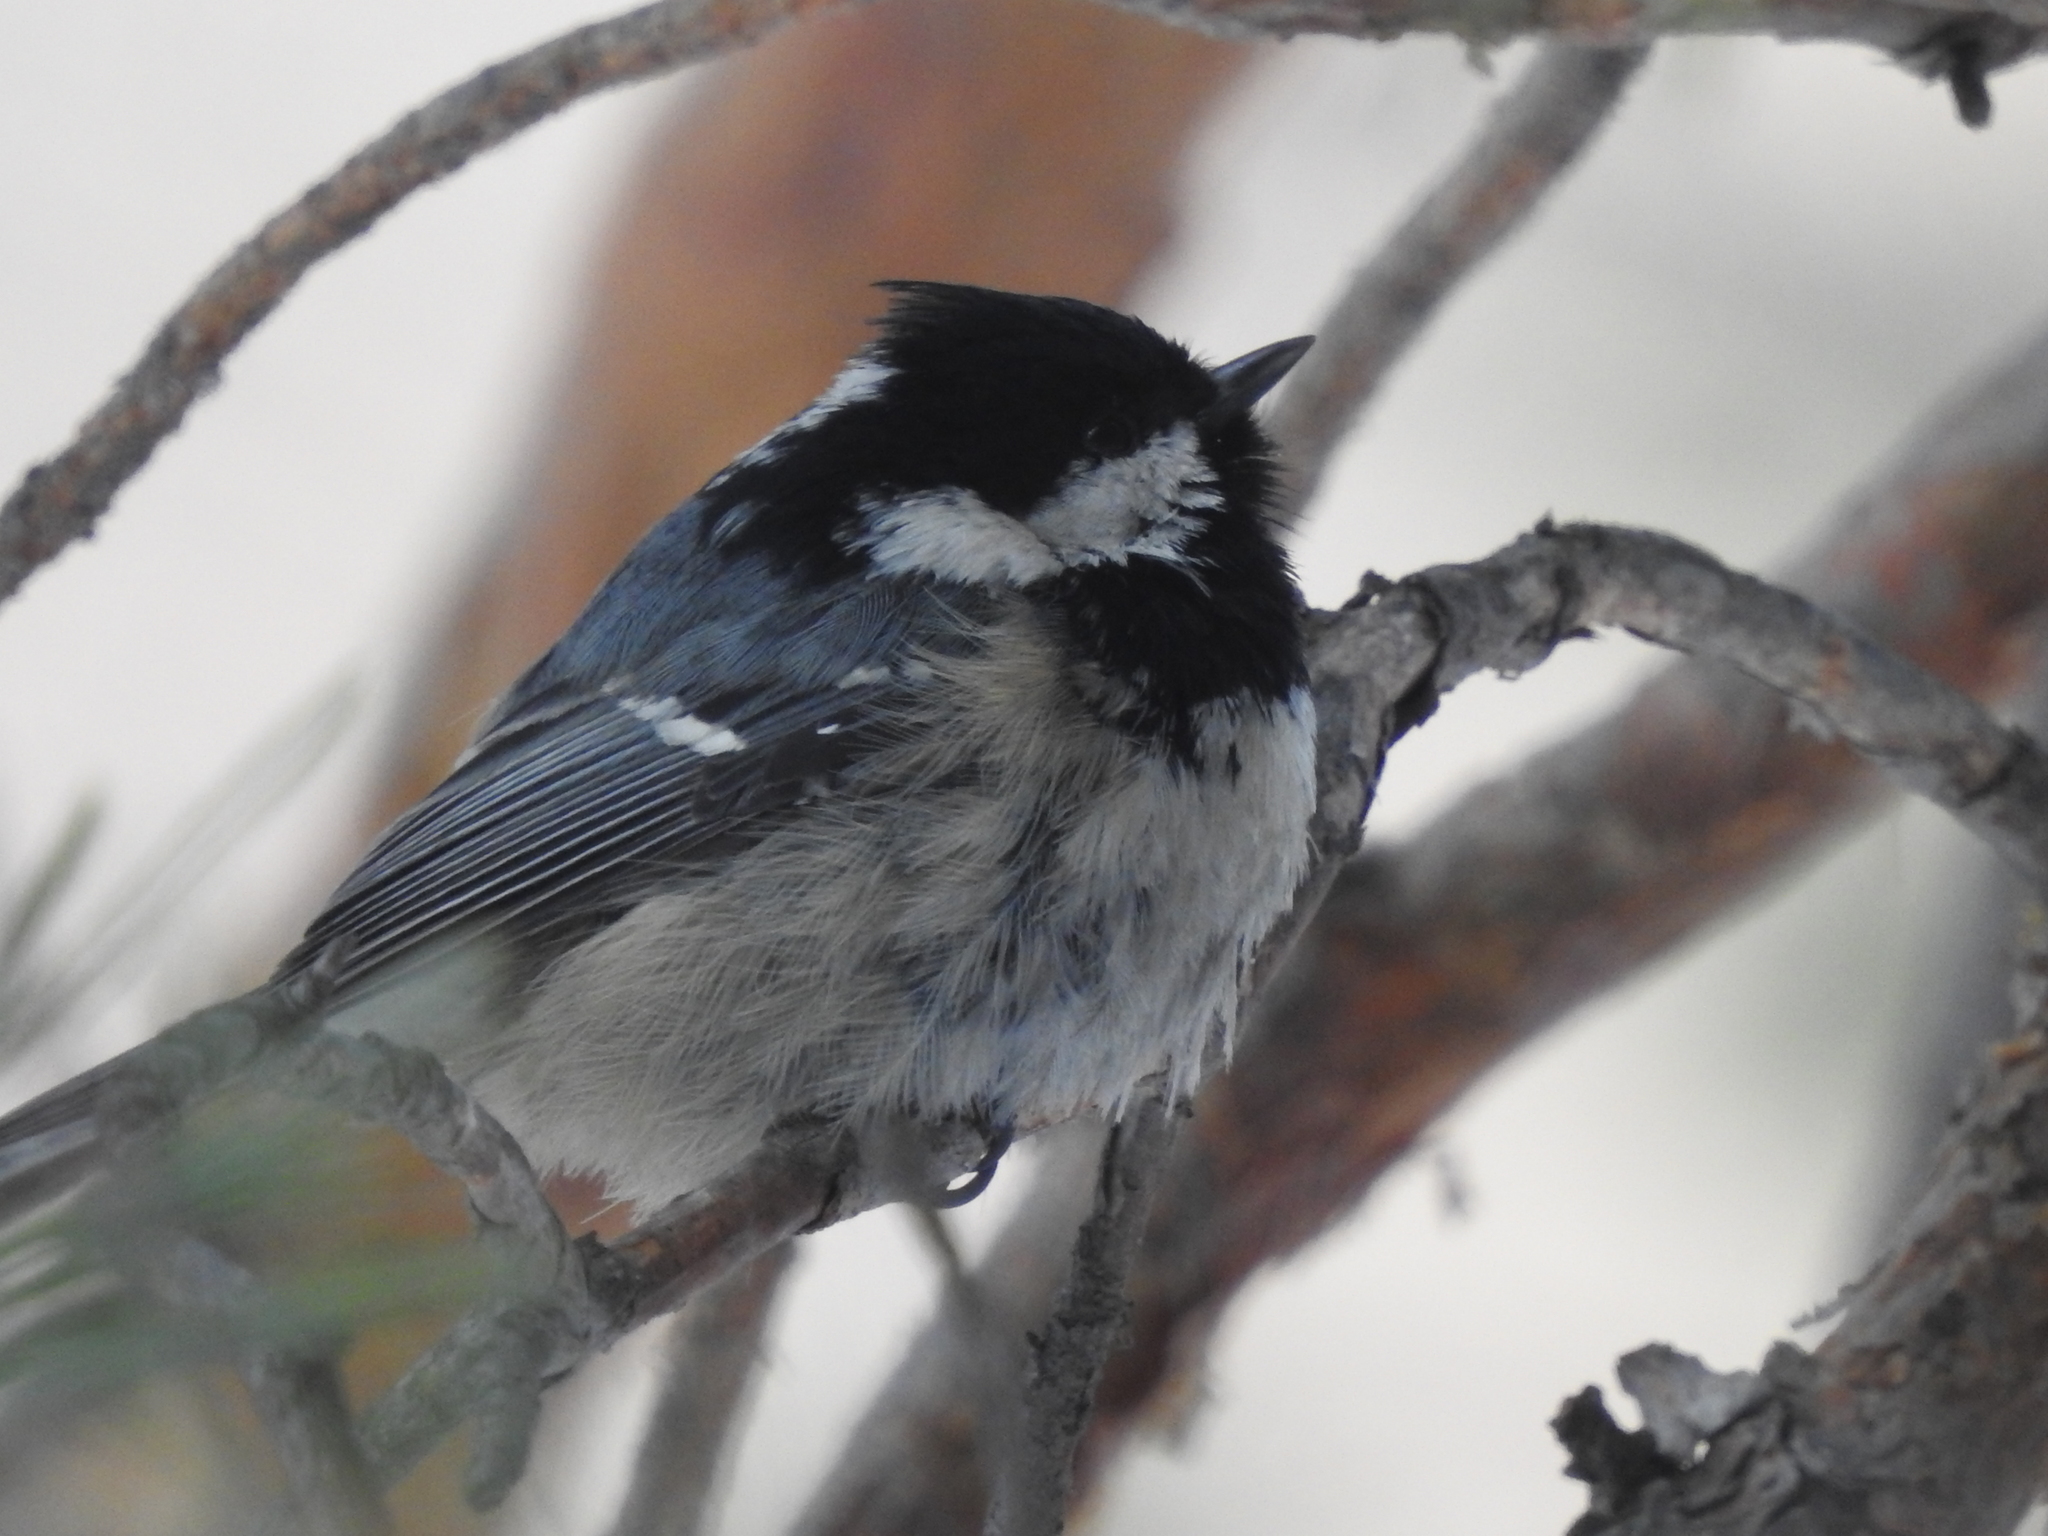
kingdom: Animalia
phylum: Chordata
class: Aves
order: Passeriformes
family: Paridae
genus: Periparus
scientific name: Periparus ater
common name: Coal tit
